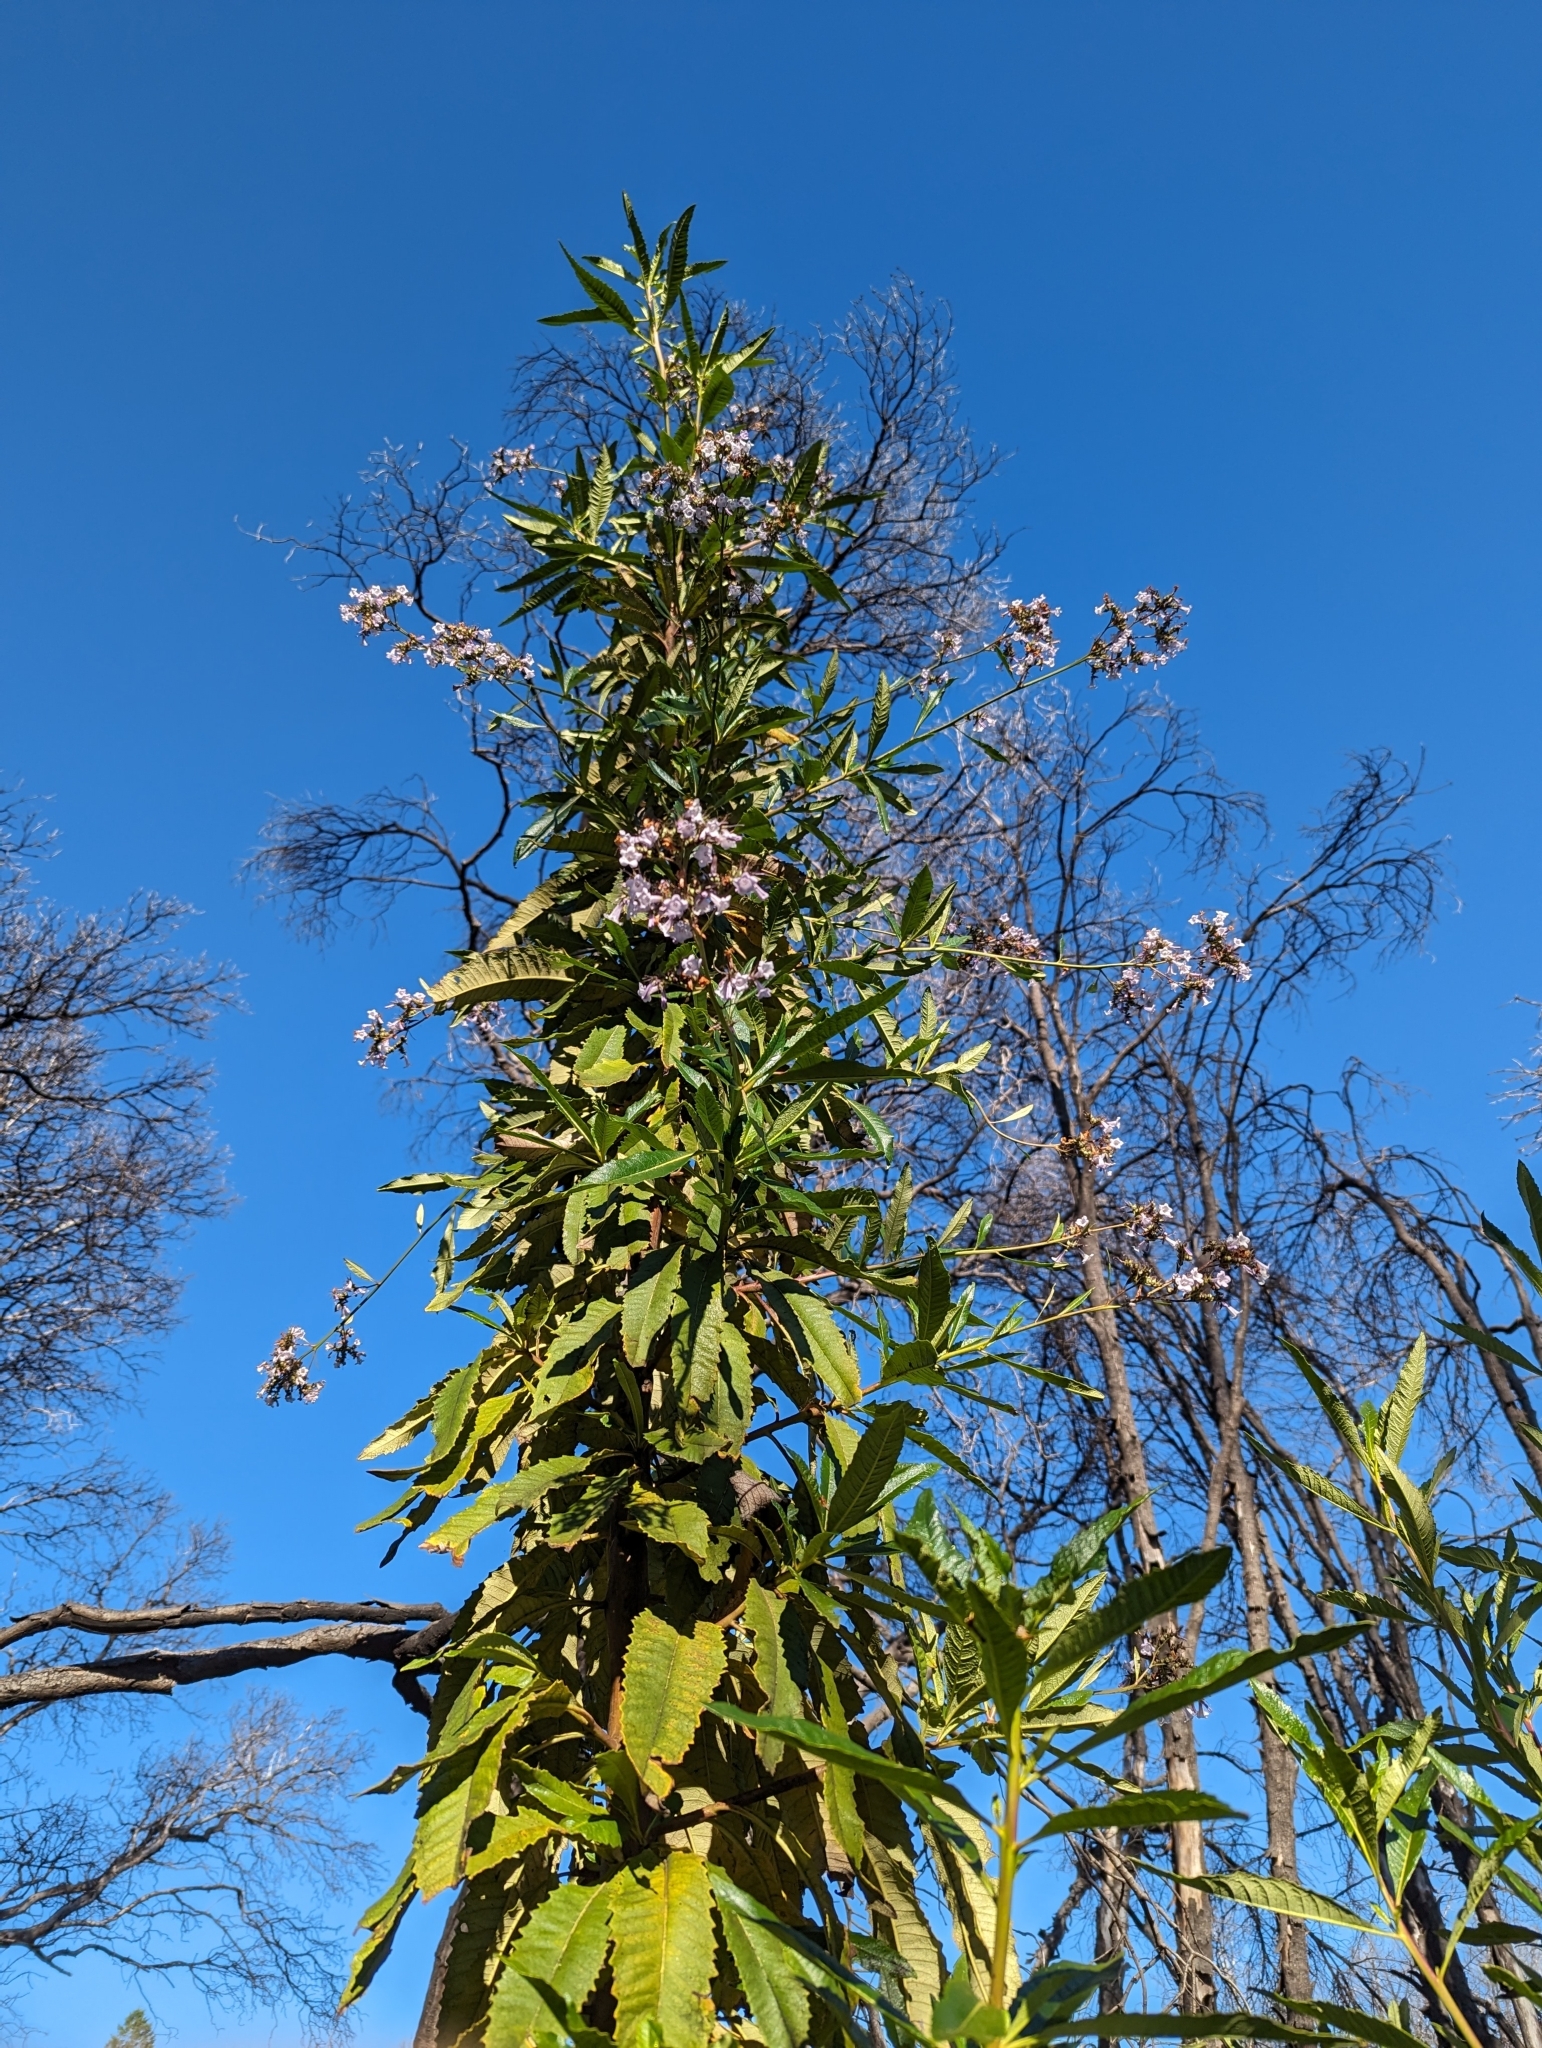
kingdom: Plantae
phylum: Tracheophyta
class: Magnoliopsida
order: Boraginales
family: Namaceae
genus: Eriodictyon
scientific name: Eriodictyon californicum
